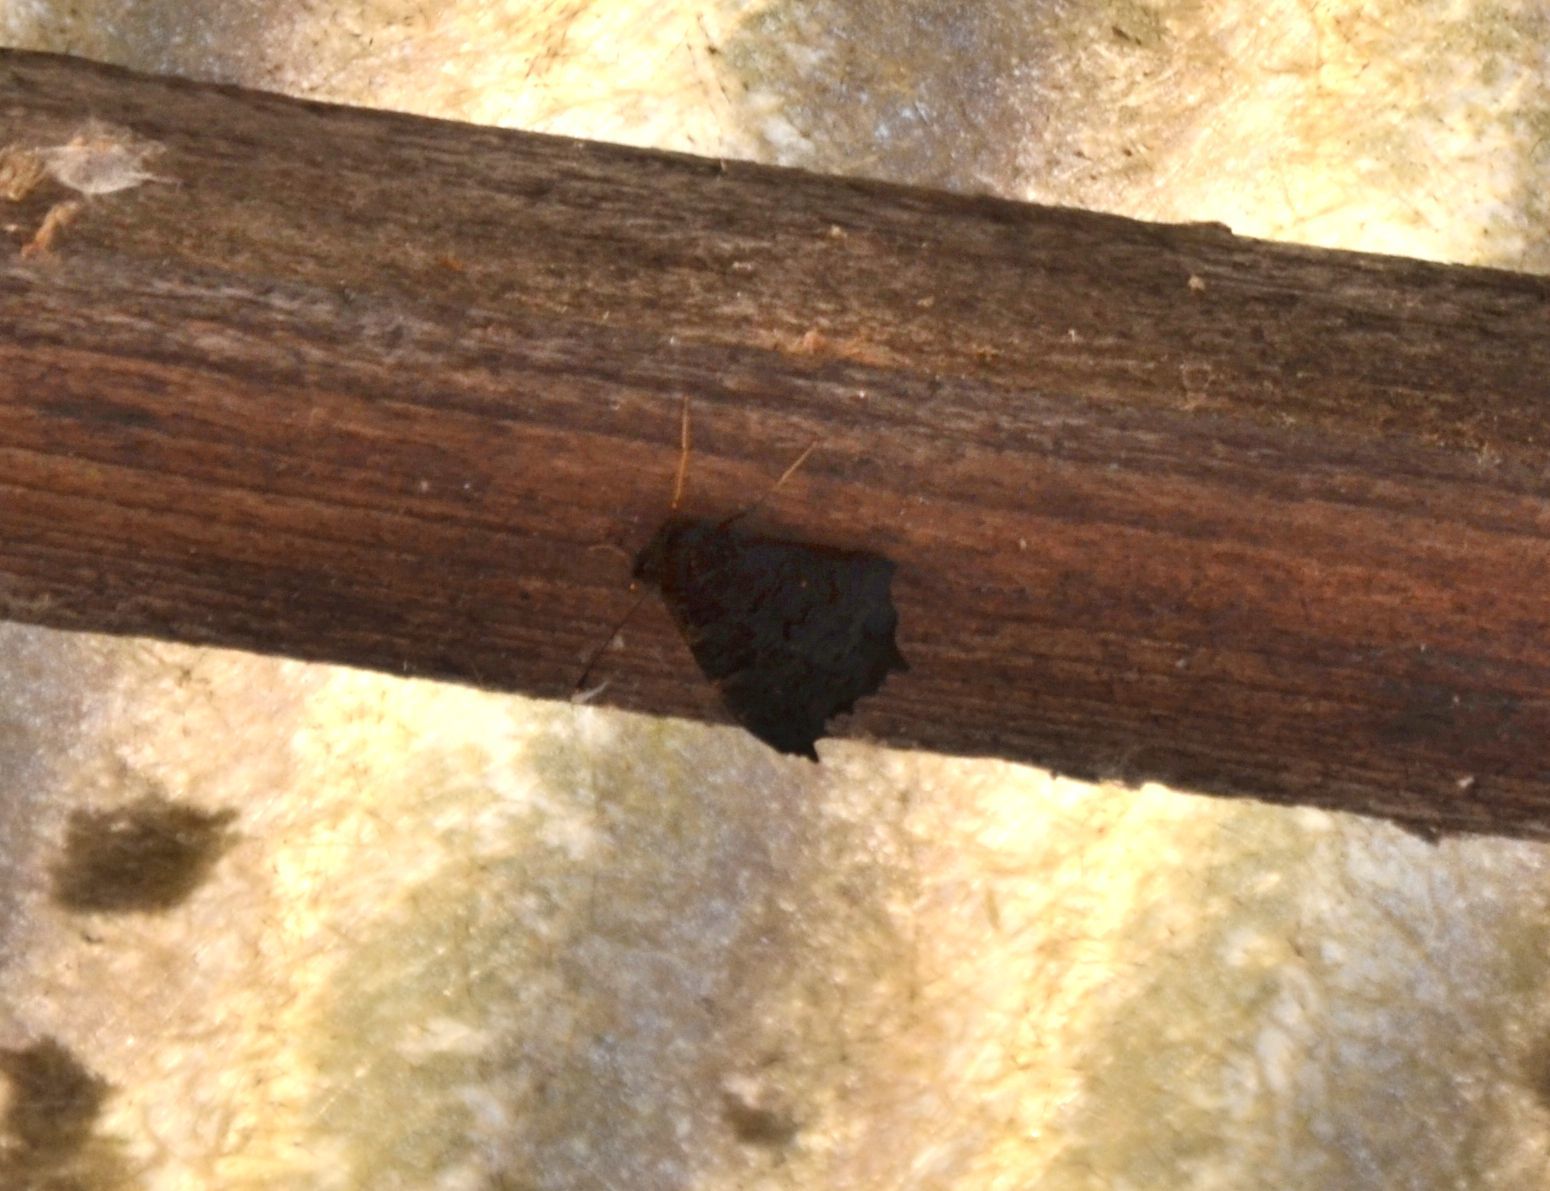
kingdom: Animalia
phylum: Arthropoda
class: Insecta
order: Lepidoptera
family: Nymphalidae
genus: Aglais
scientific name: Aglais io
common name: Peacock
